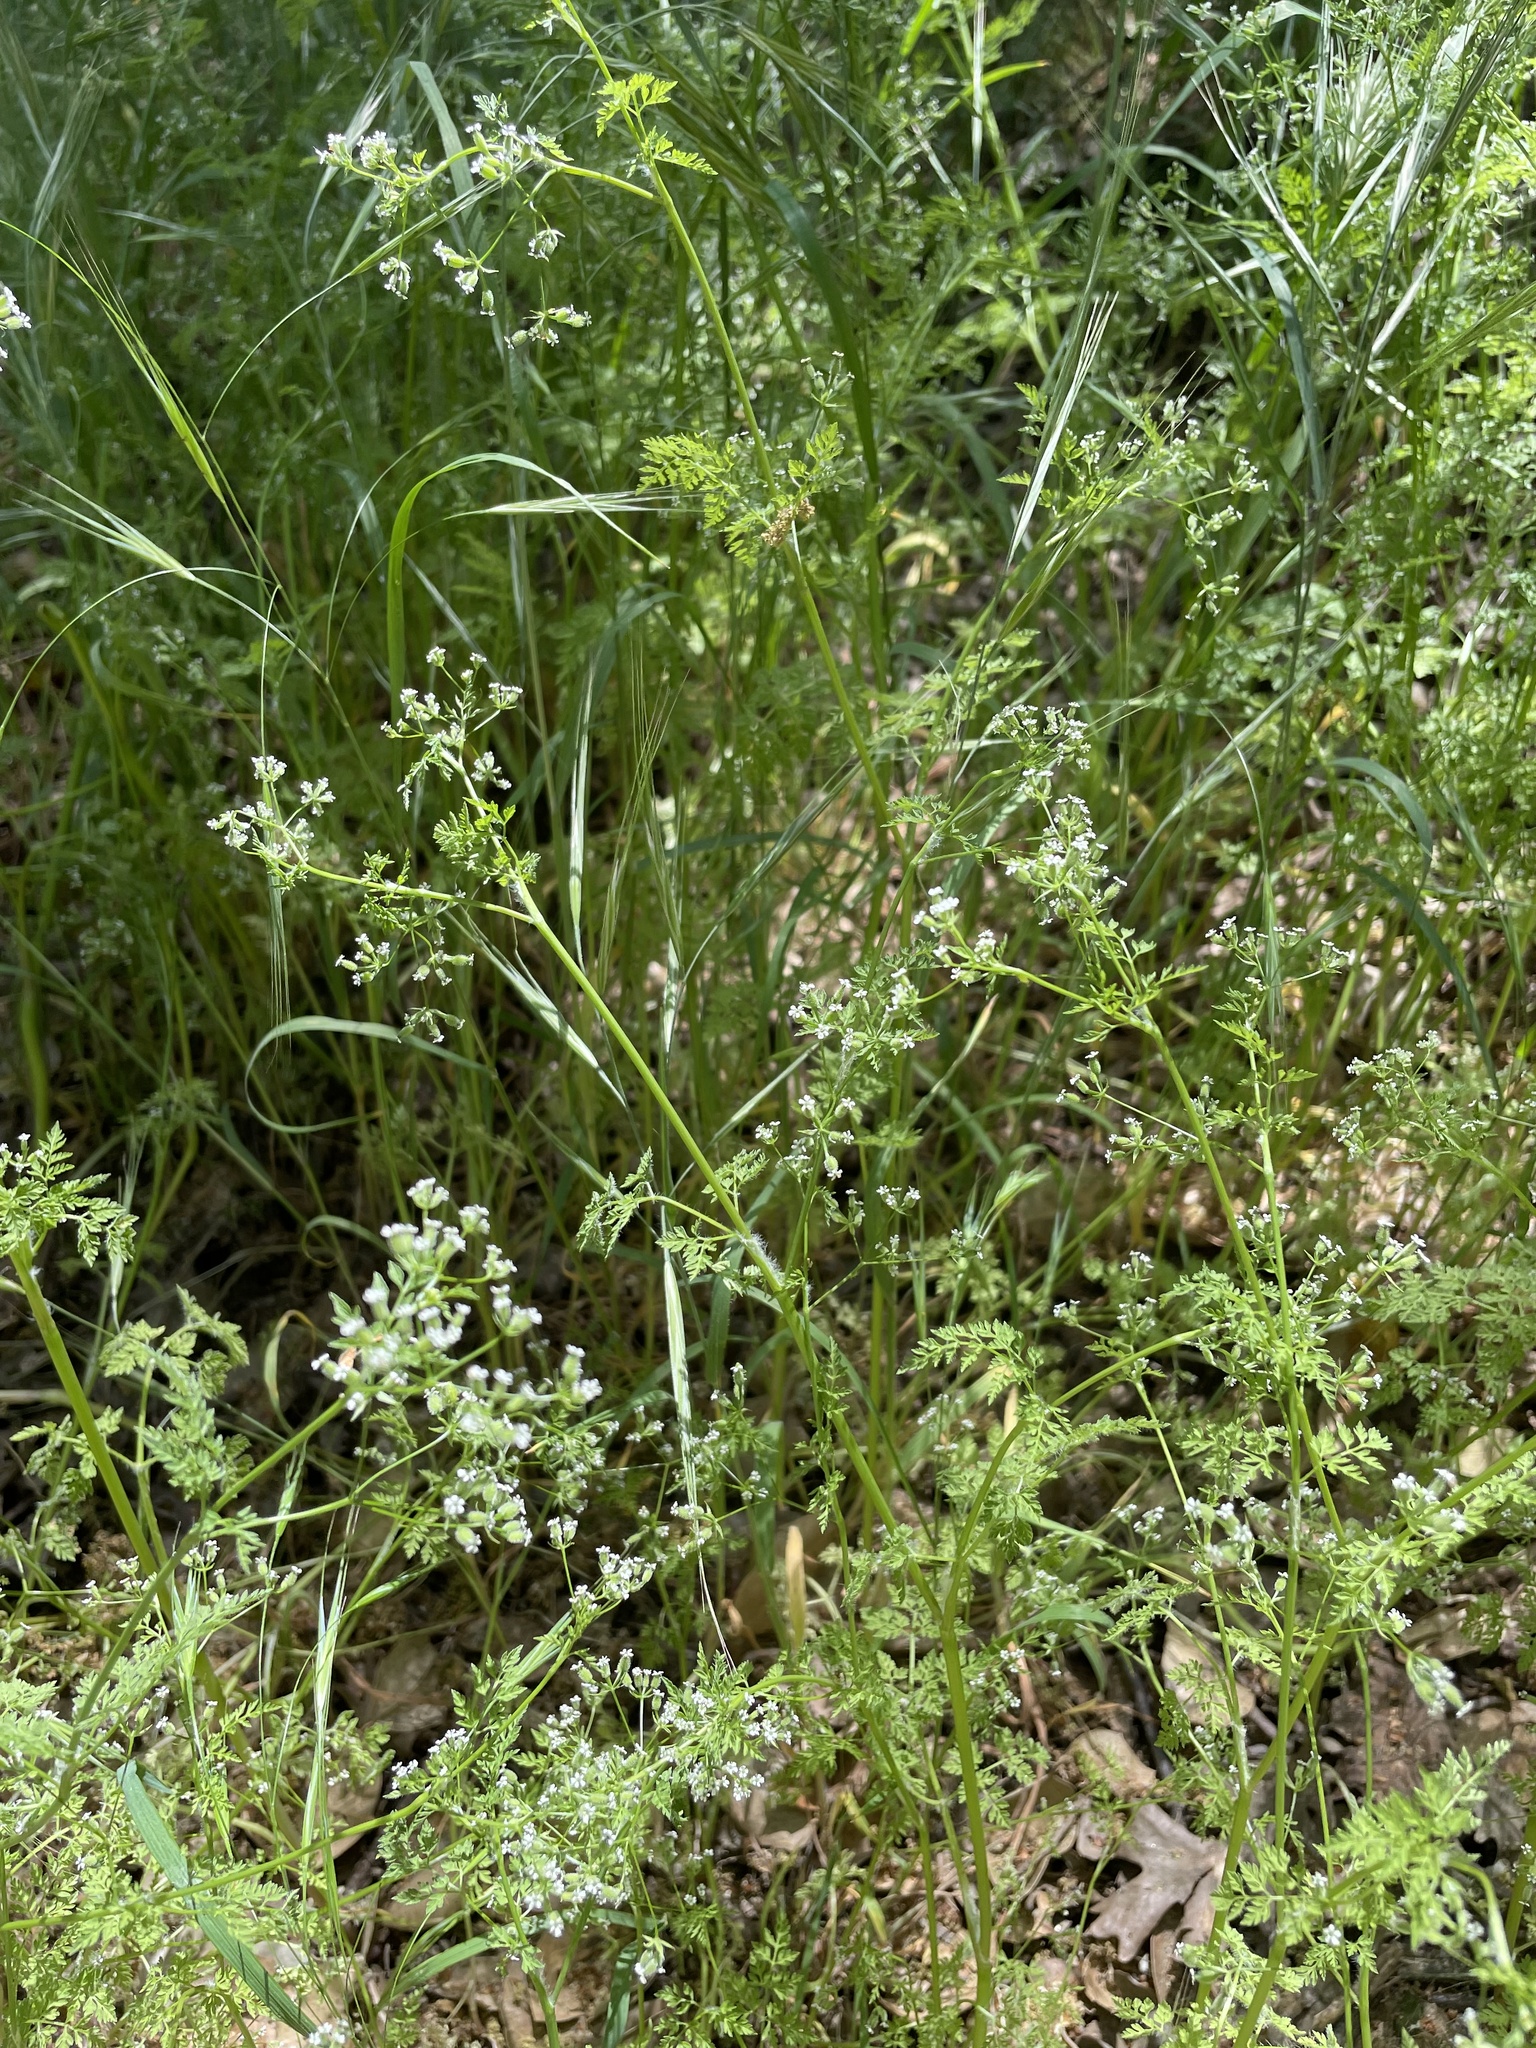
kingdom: Plantae
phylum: Tracheophyta
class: Magnoliopsida
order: Apiales
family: Apiaceae
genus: Anthriscus
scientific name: Anthriscus caucalis
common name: Bur chervil
